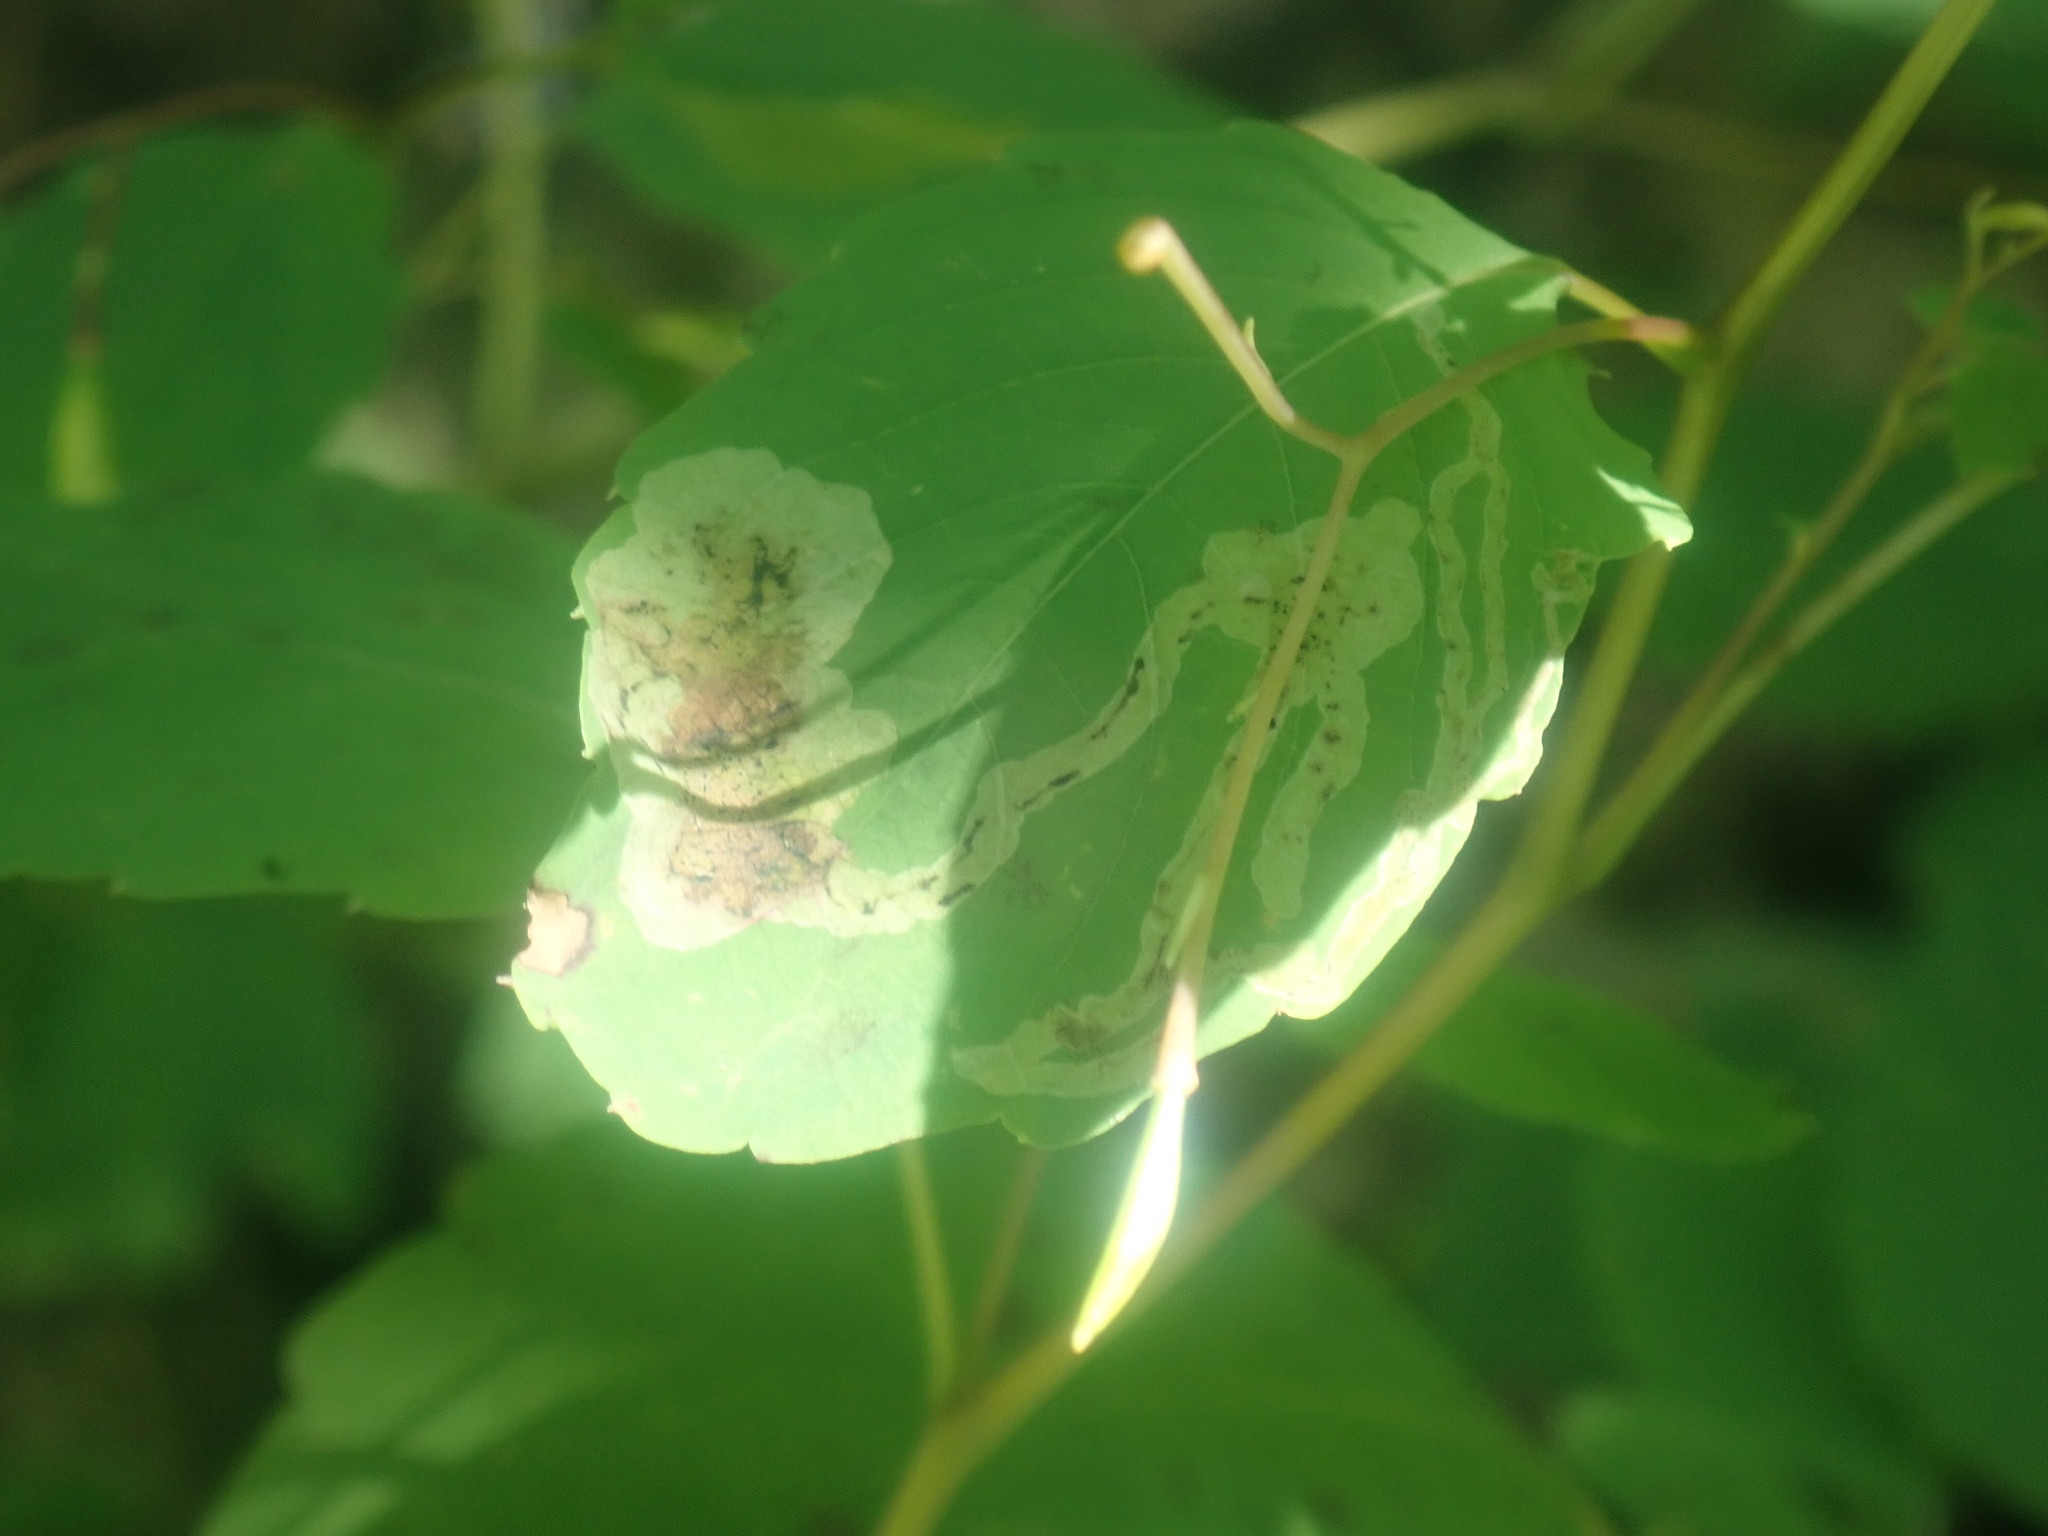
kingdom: Animalia
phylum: Arthropoda
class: Insecta
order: Diptera
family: Agromyzidae
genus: Phytoliriomyza
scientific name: Phytoliriomyza melampyga
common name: Jewelweed leaf-miner fly
